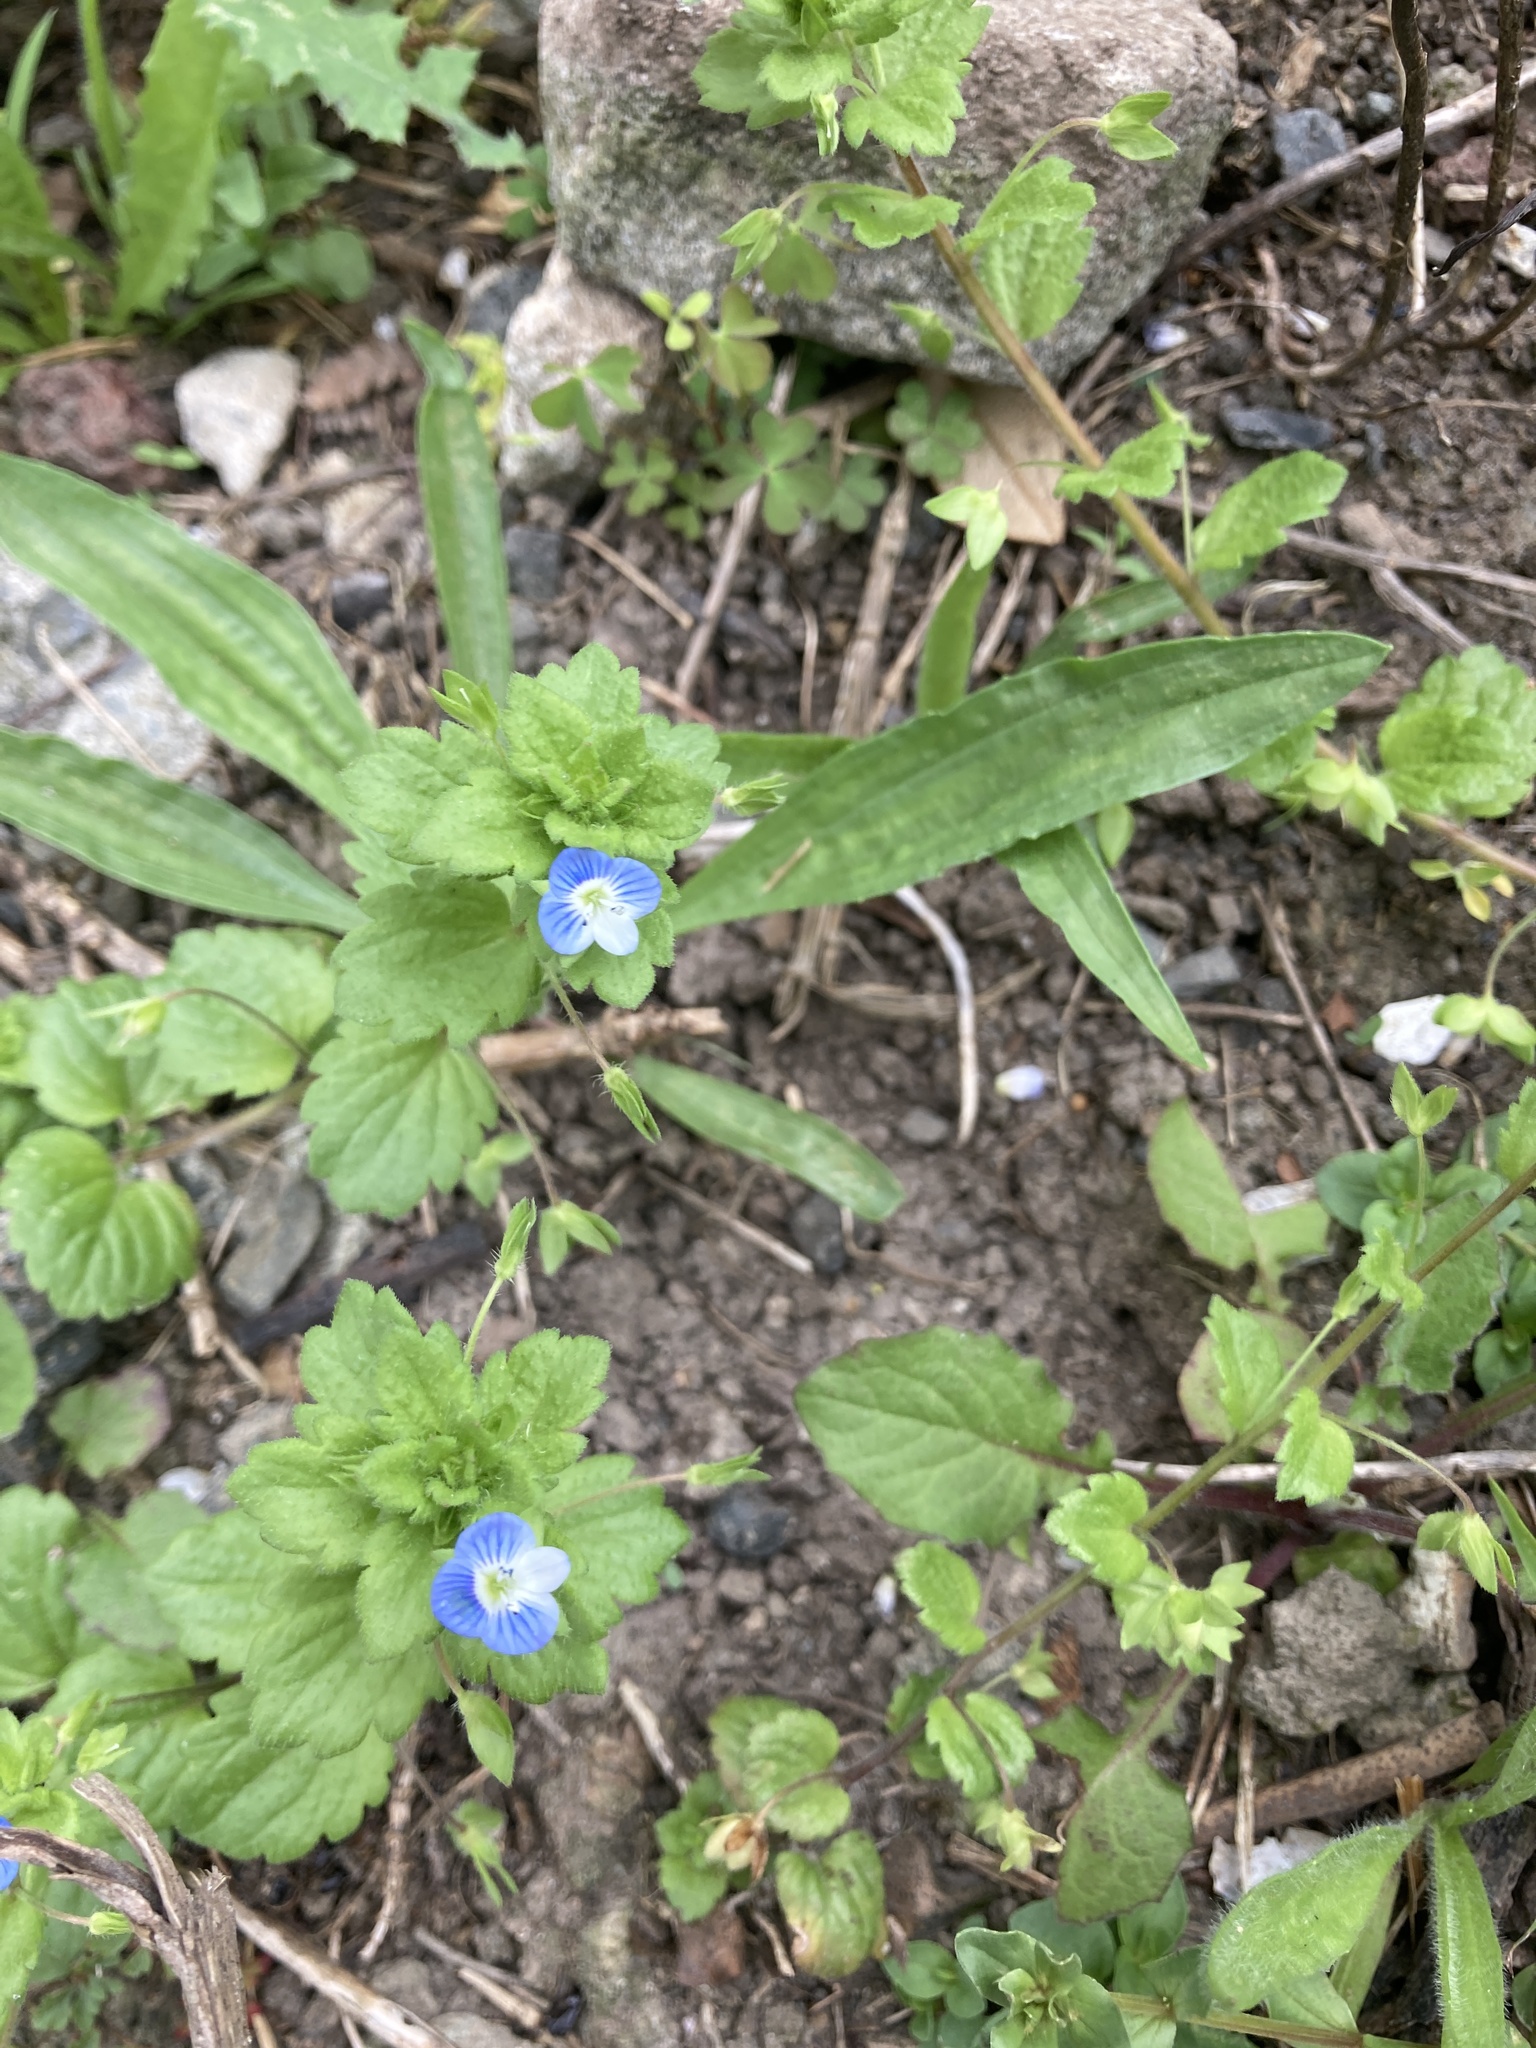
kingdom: Plantae
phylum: Tracheophyta
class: Magnoliopsida
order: Lamiales
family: Plantaginaceae
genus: Veronica
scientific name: Veronica persica
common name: Common field-speedwell
